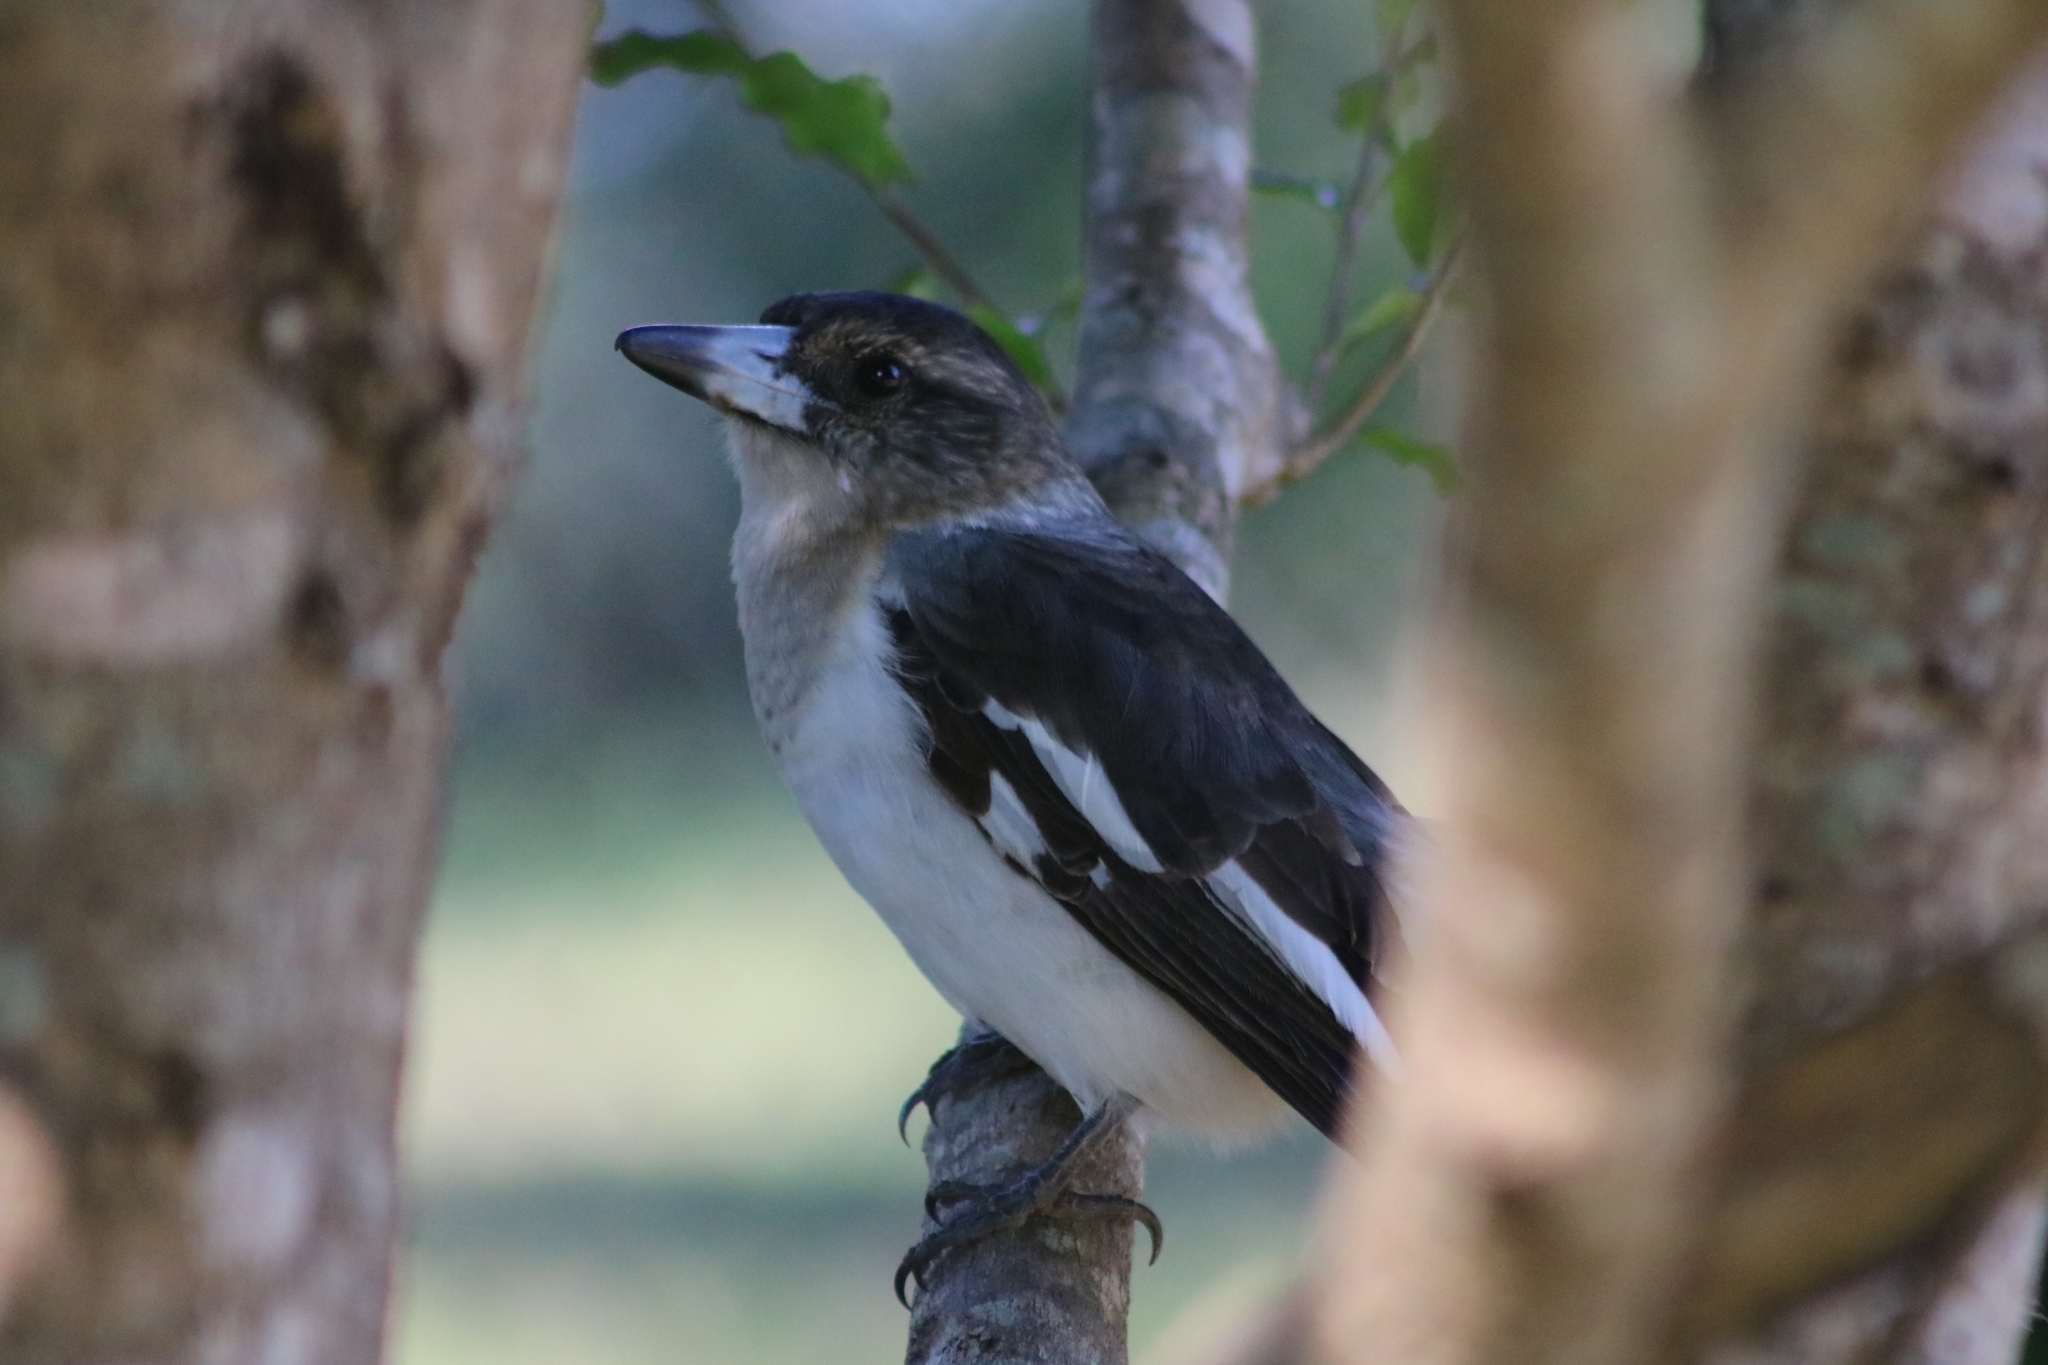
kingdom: Animalia
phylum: Chordata
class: Aves
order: Passeriformes
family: Cracticidae
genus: Cracticus
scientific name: Cracticus nigrogularis
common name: Pied butcherbird
